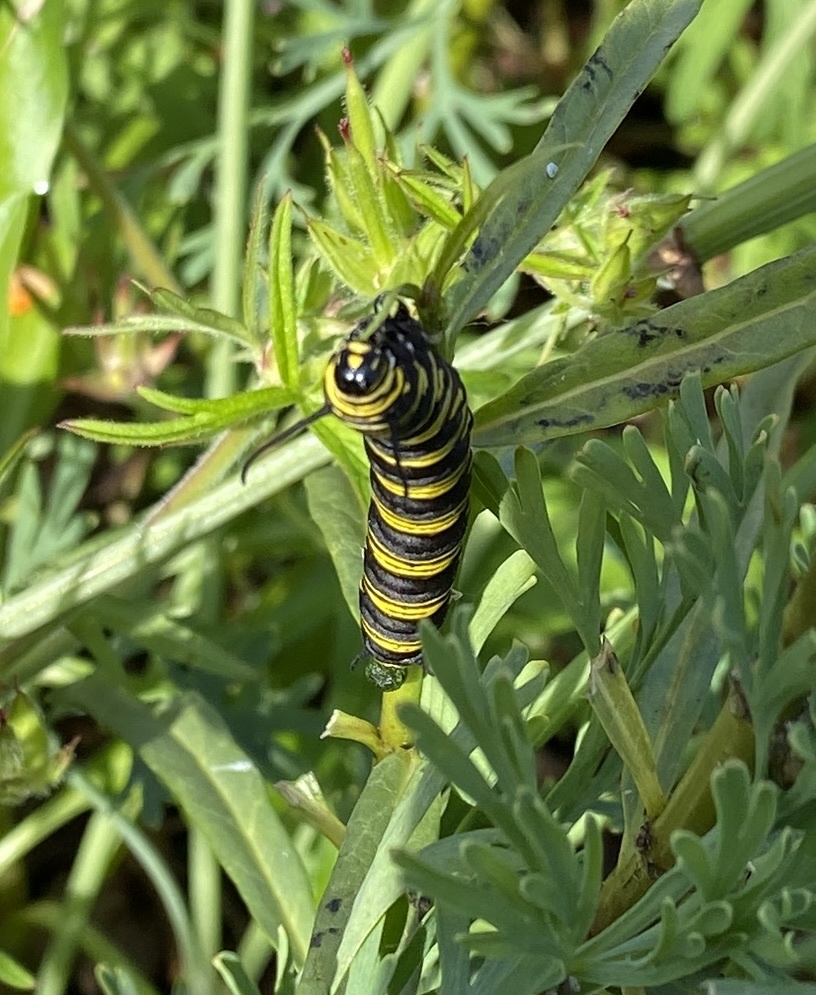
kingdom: Animalia
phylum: Arthropoda
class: Insecta
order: Lepidoptera
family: Nymphalidae
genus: Danaus
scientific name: Danaus plexippus
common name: Monarch
